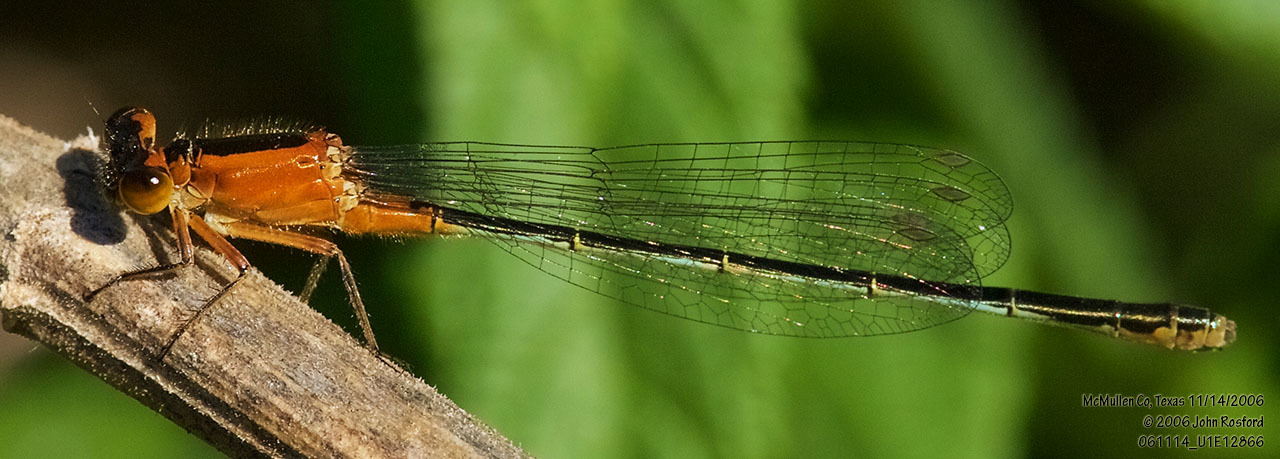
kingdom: Animalia
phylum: Arthropoda
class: Insecta
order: Odonata
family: Coenagrionidae
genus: Ischnura
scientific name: Ischnura ramburii
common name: Rambur's forktail
